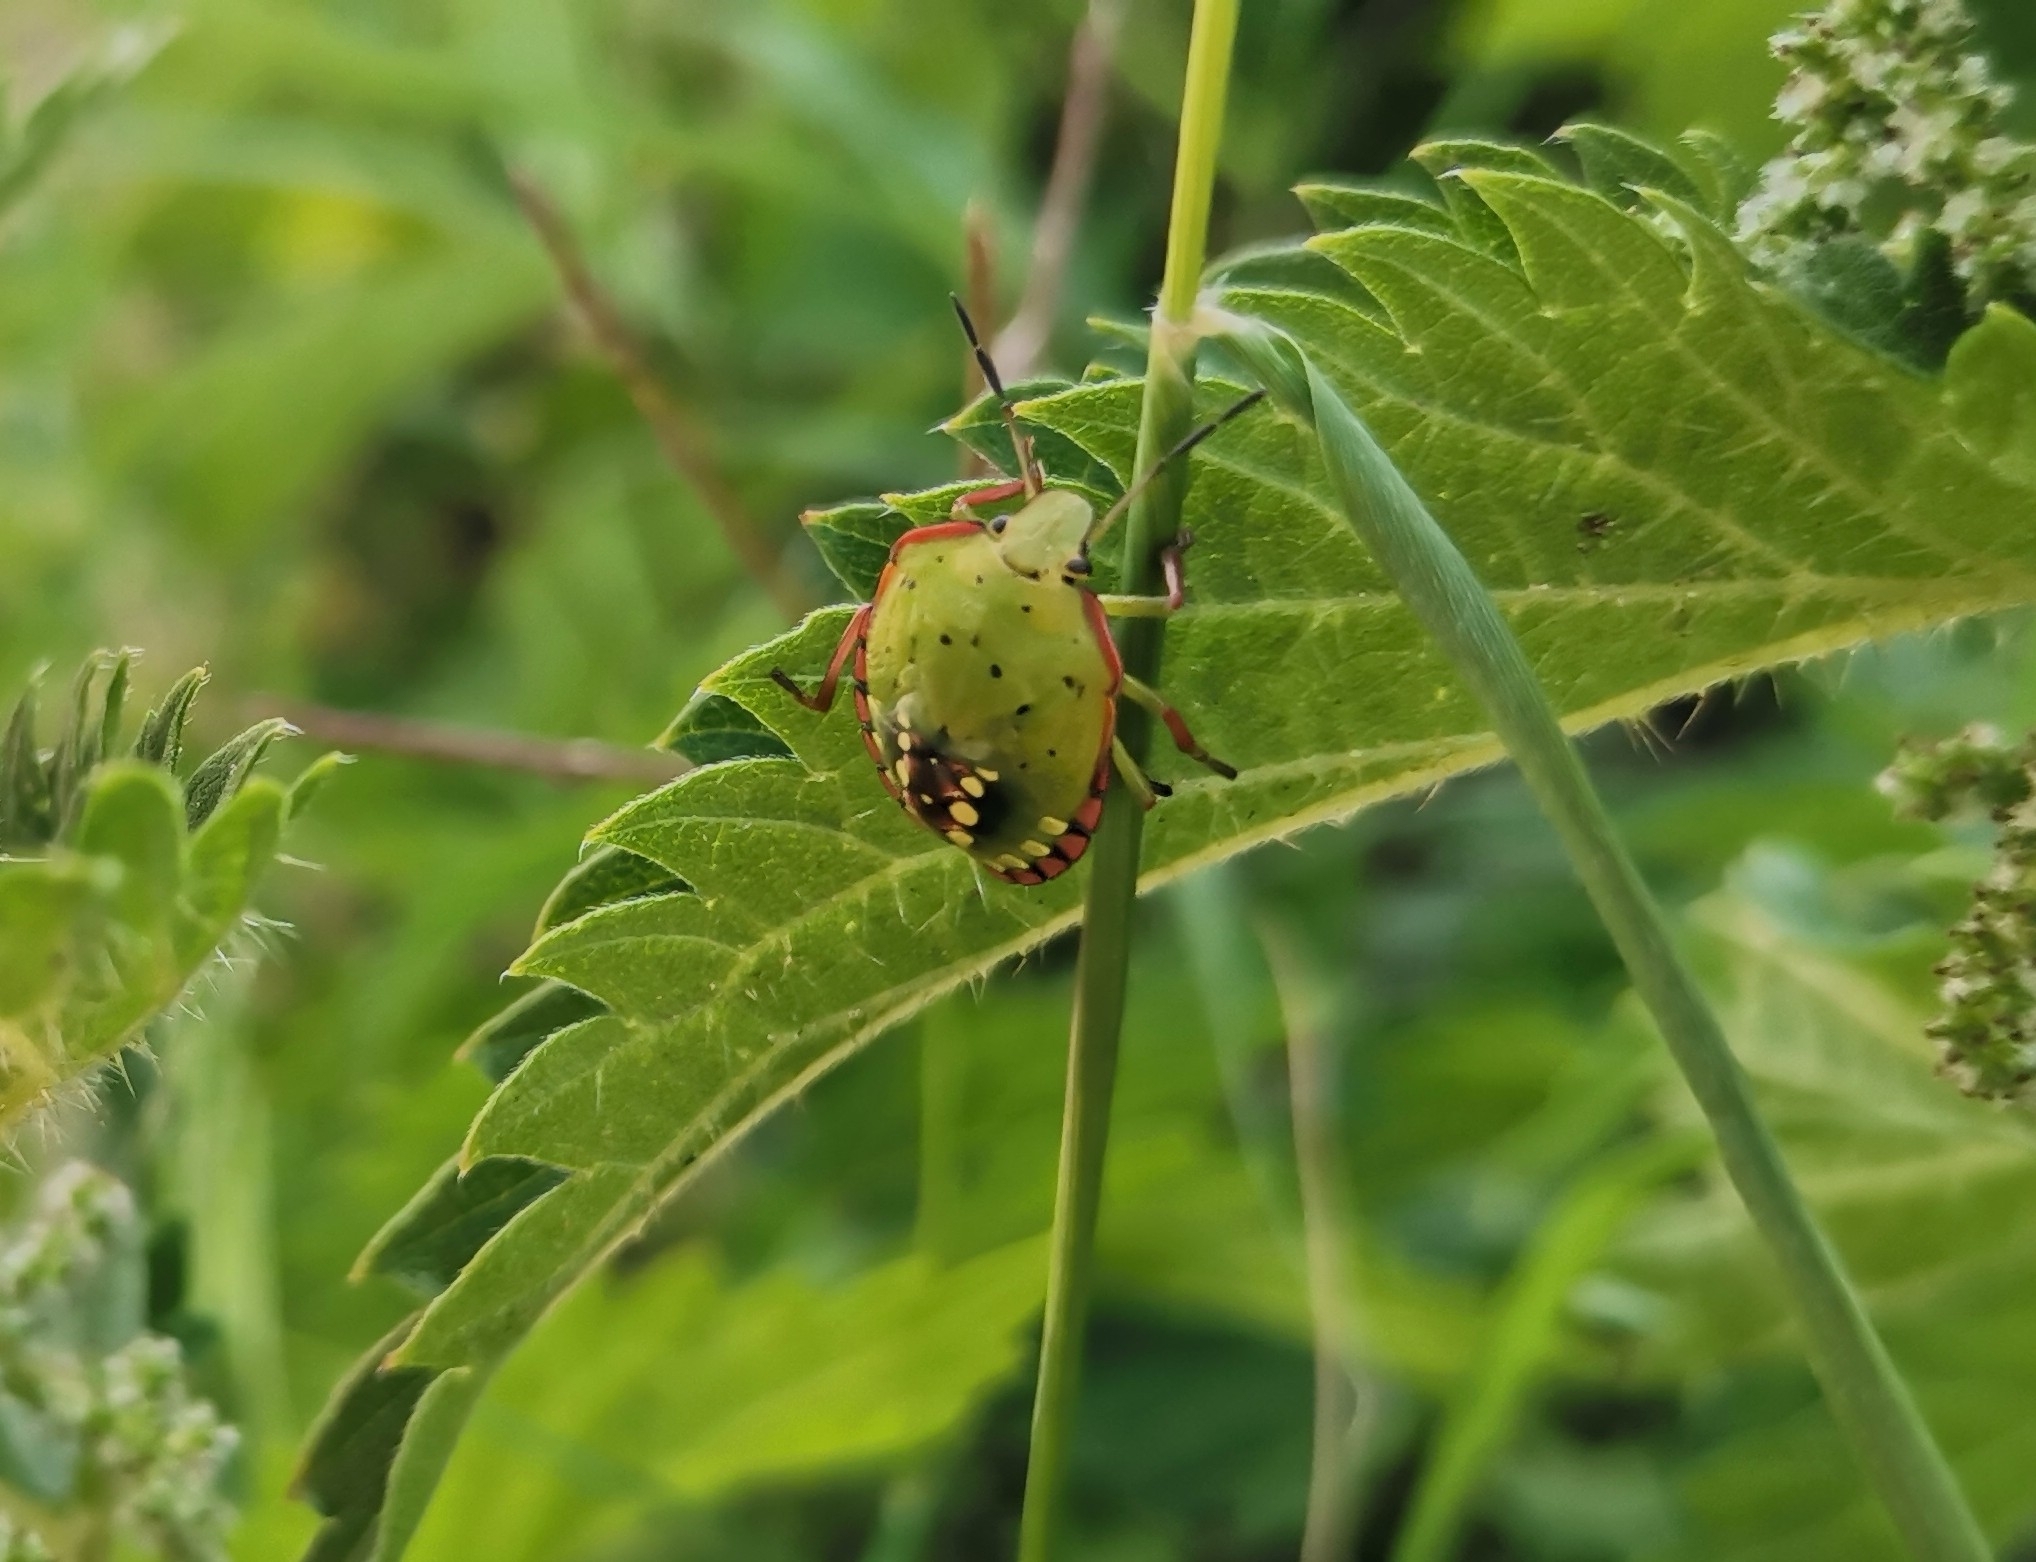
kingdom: Animalia
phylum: Arthropoda
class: Insecta
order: Hemiptera
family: Pentatomidae
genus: Nezara
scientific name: Nezara viridula
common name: Southern green stink bug
